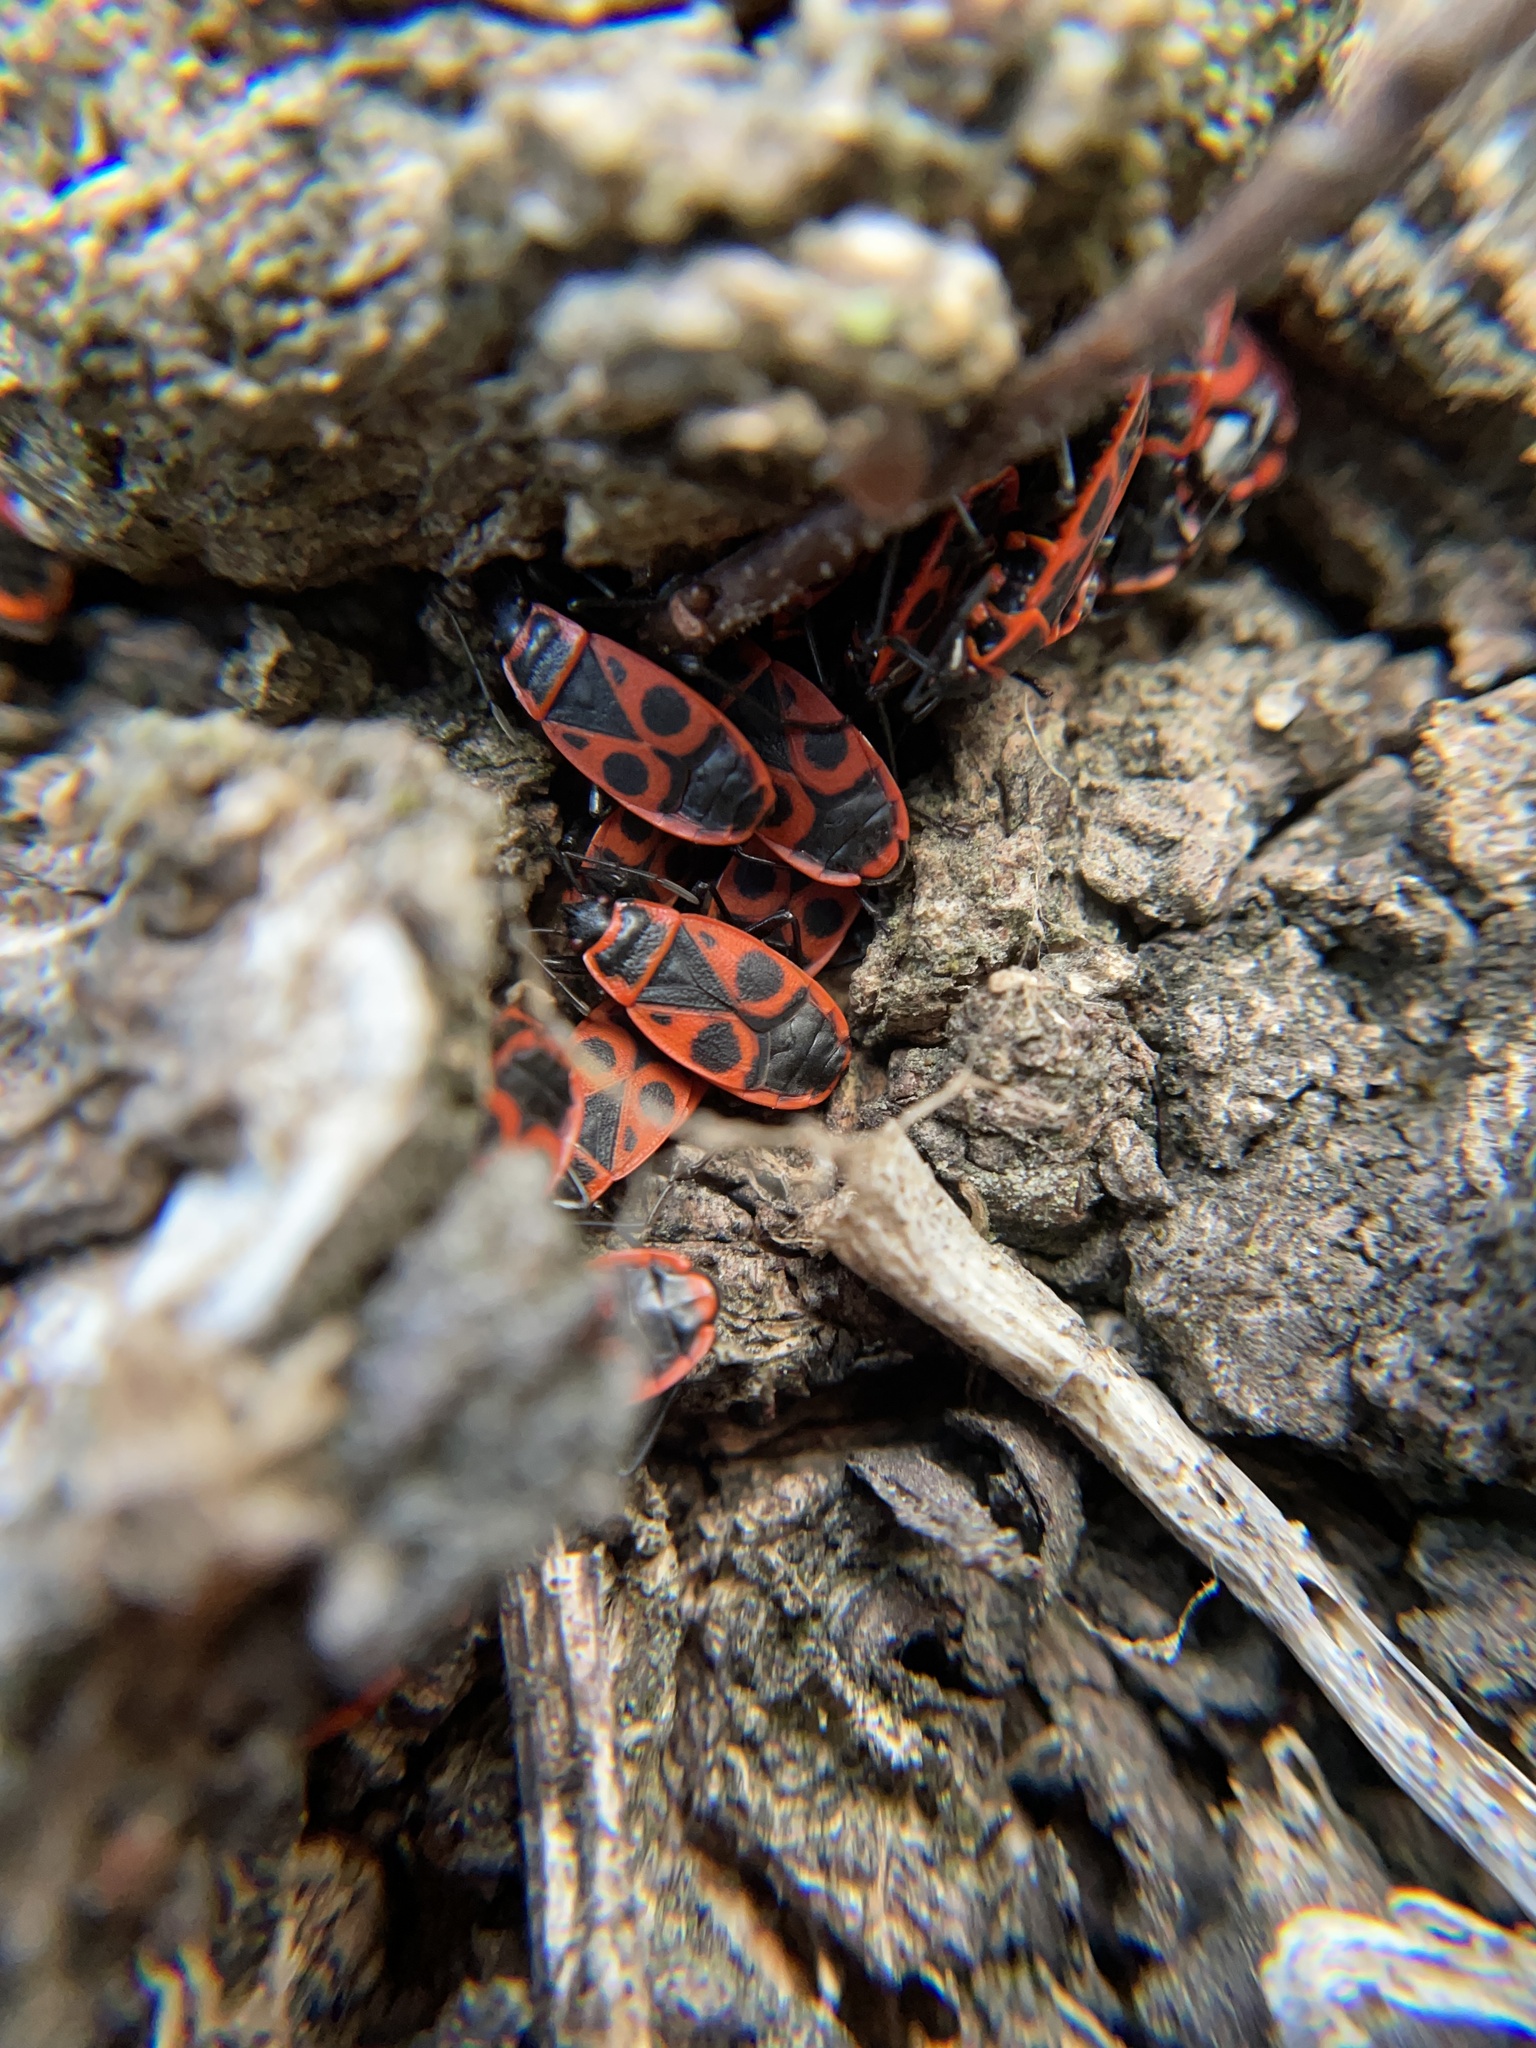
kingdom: Animalia
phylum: Arthropoda
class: Insecta
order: Hemiptera
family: Pyrrhocoridae
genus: Pyrrhocoris
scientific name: Pyrrhocoris apterus
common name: Firebug
